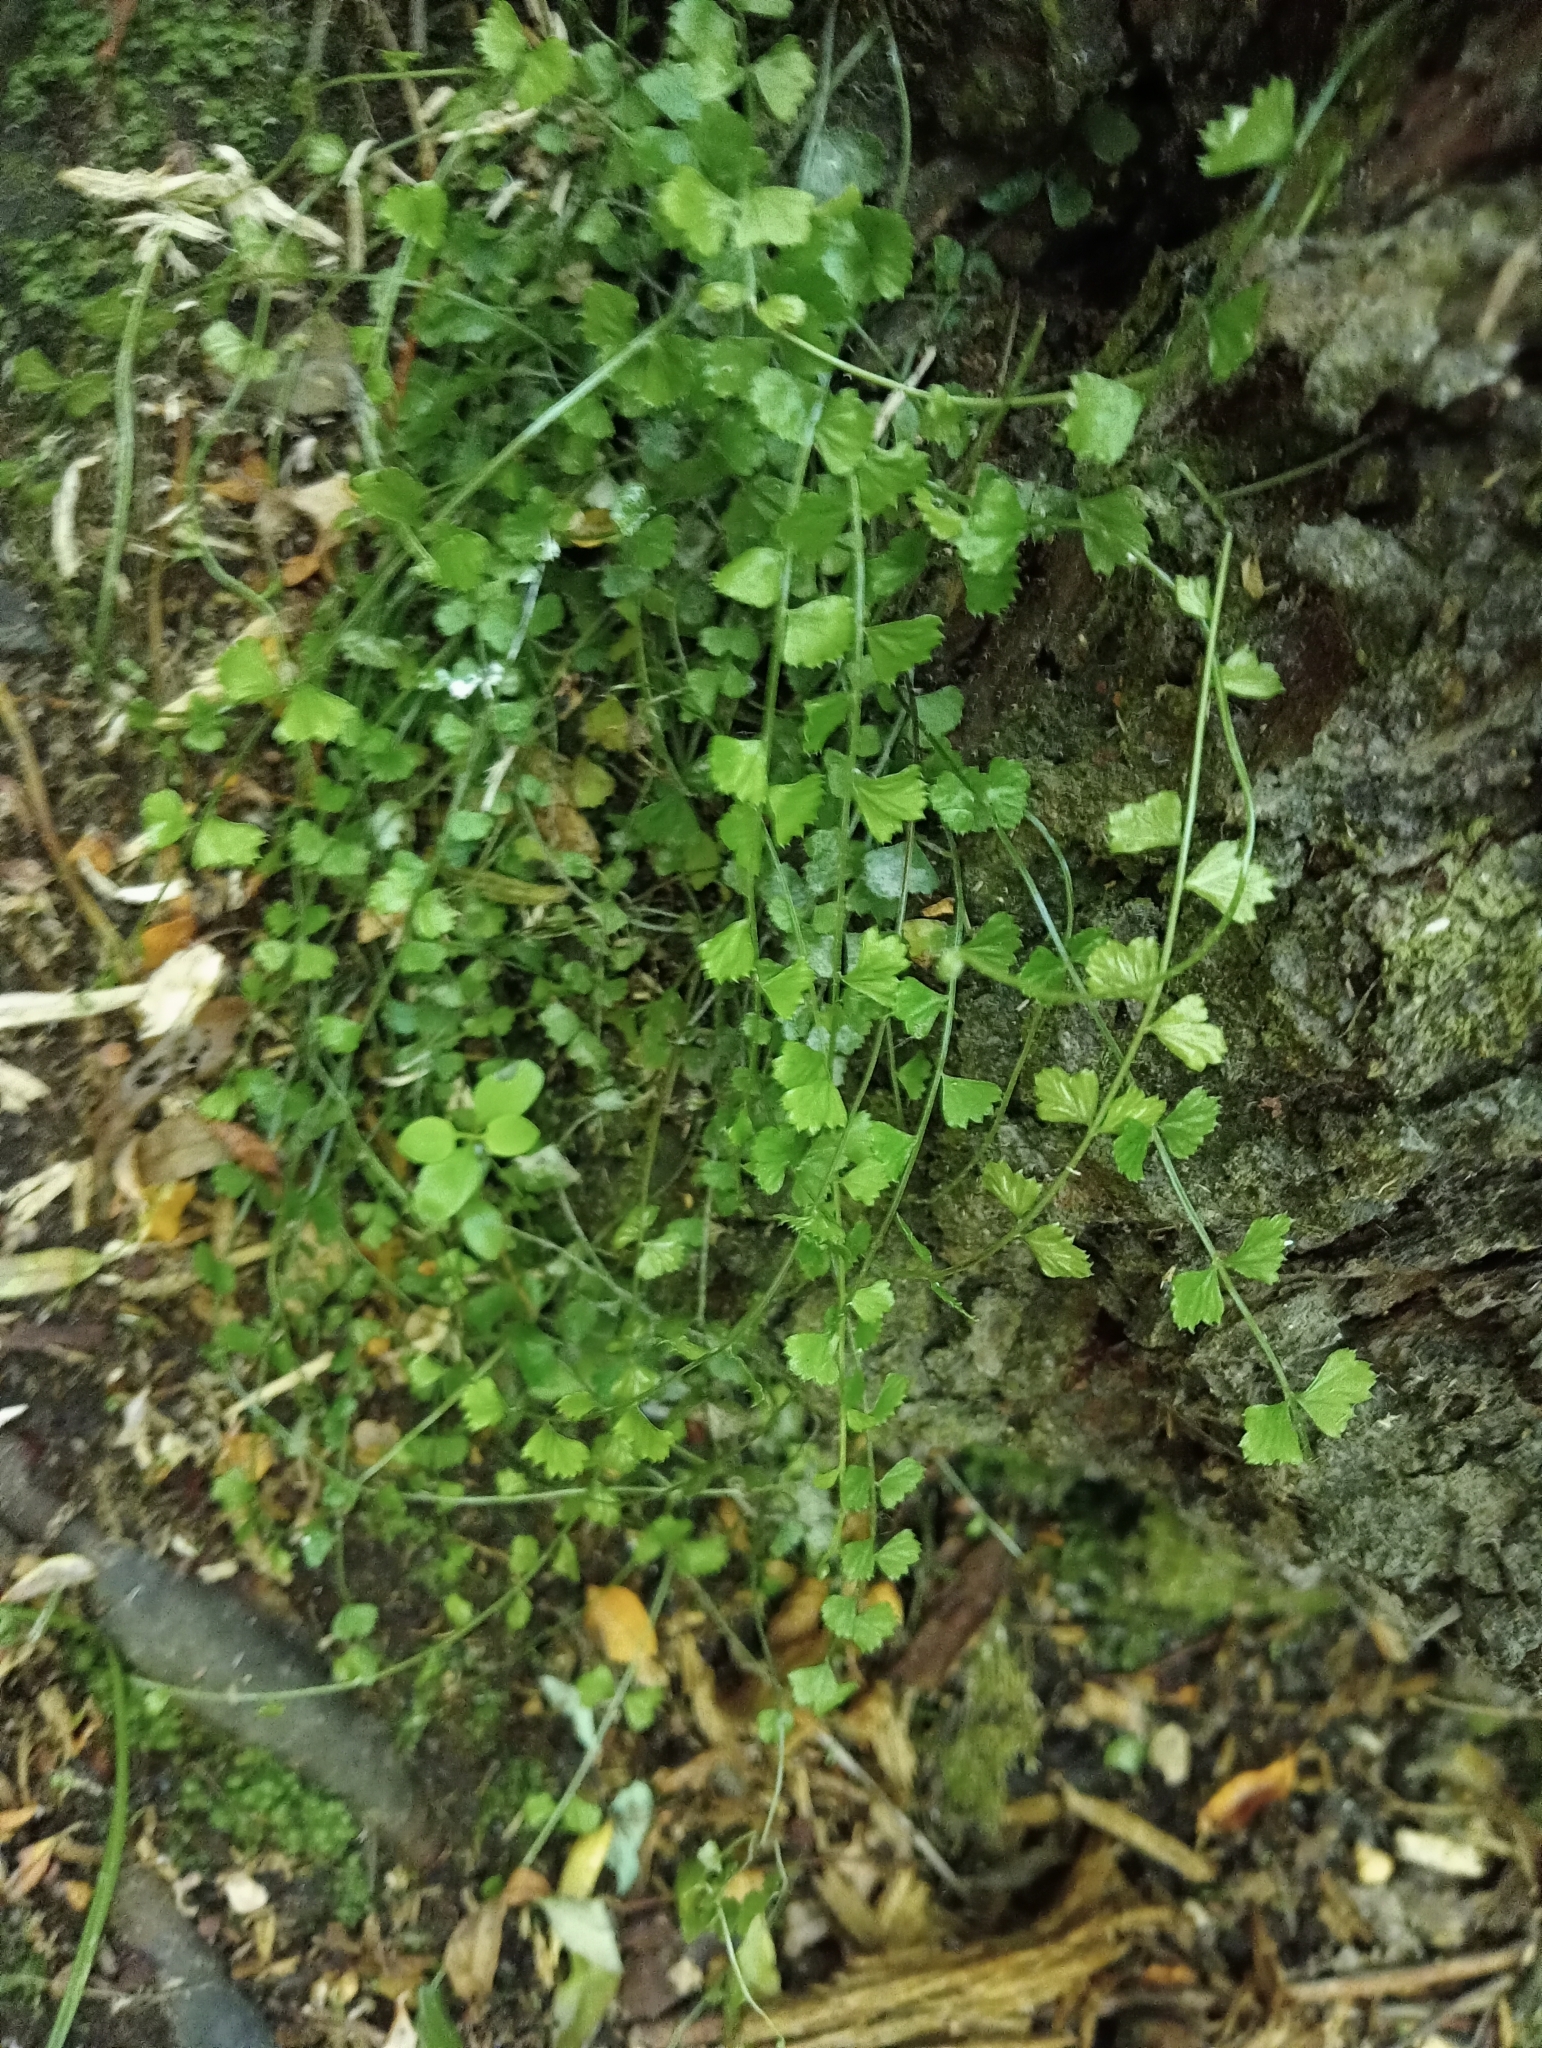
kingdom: Plantae
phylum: Tracheophyta
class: Polypodiopsida
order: Polypodiales
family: Aspleniaceae
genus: Asplenium
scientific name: Asplenium flabellifolium
